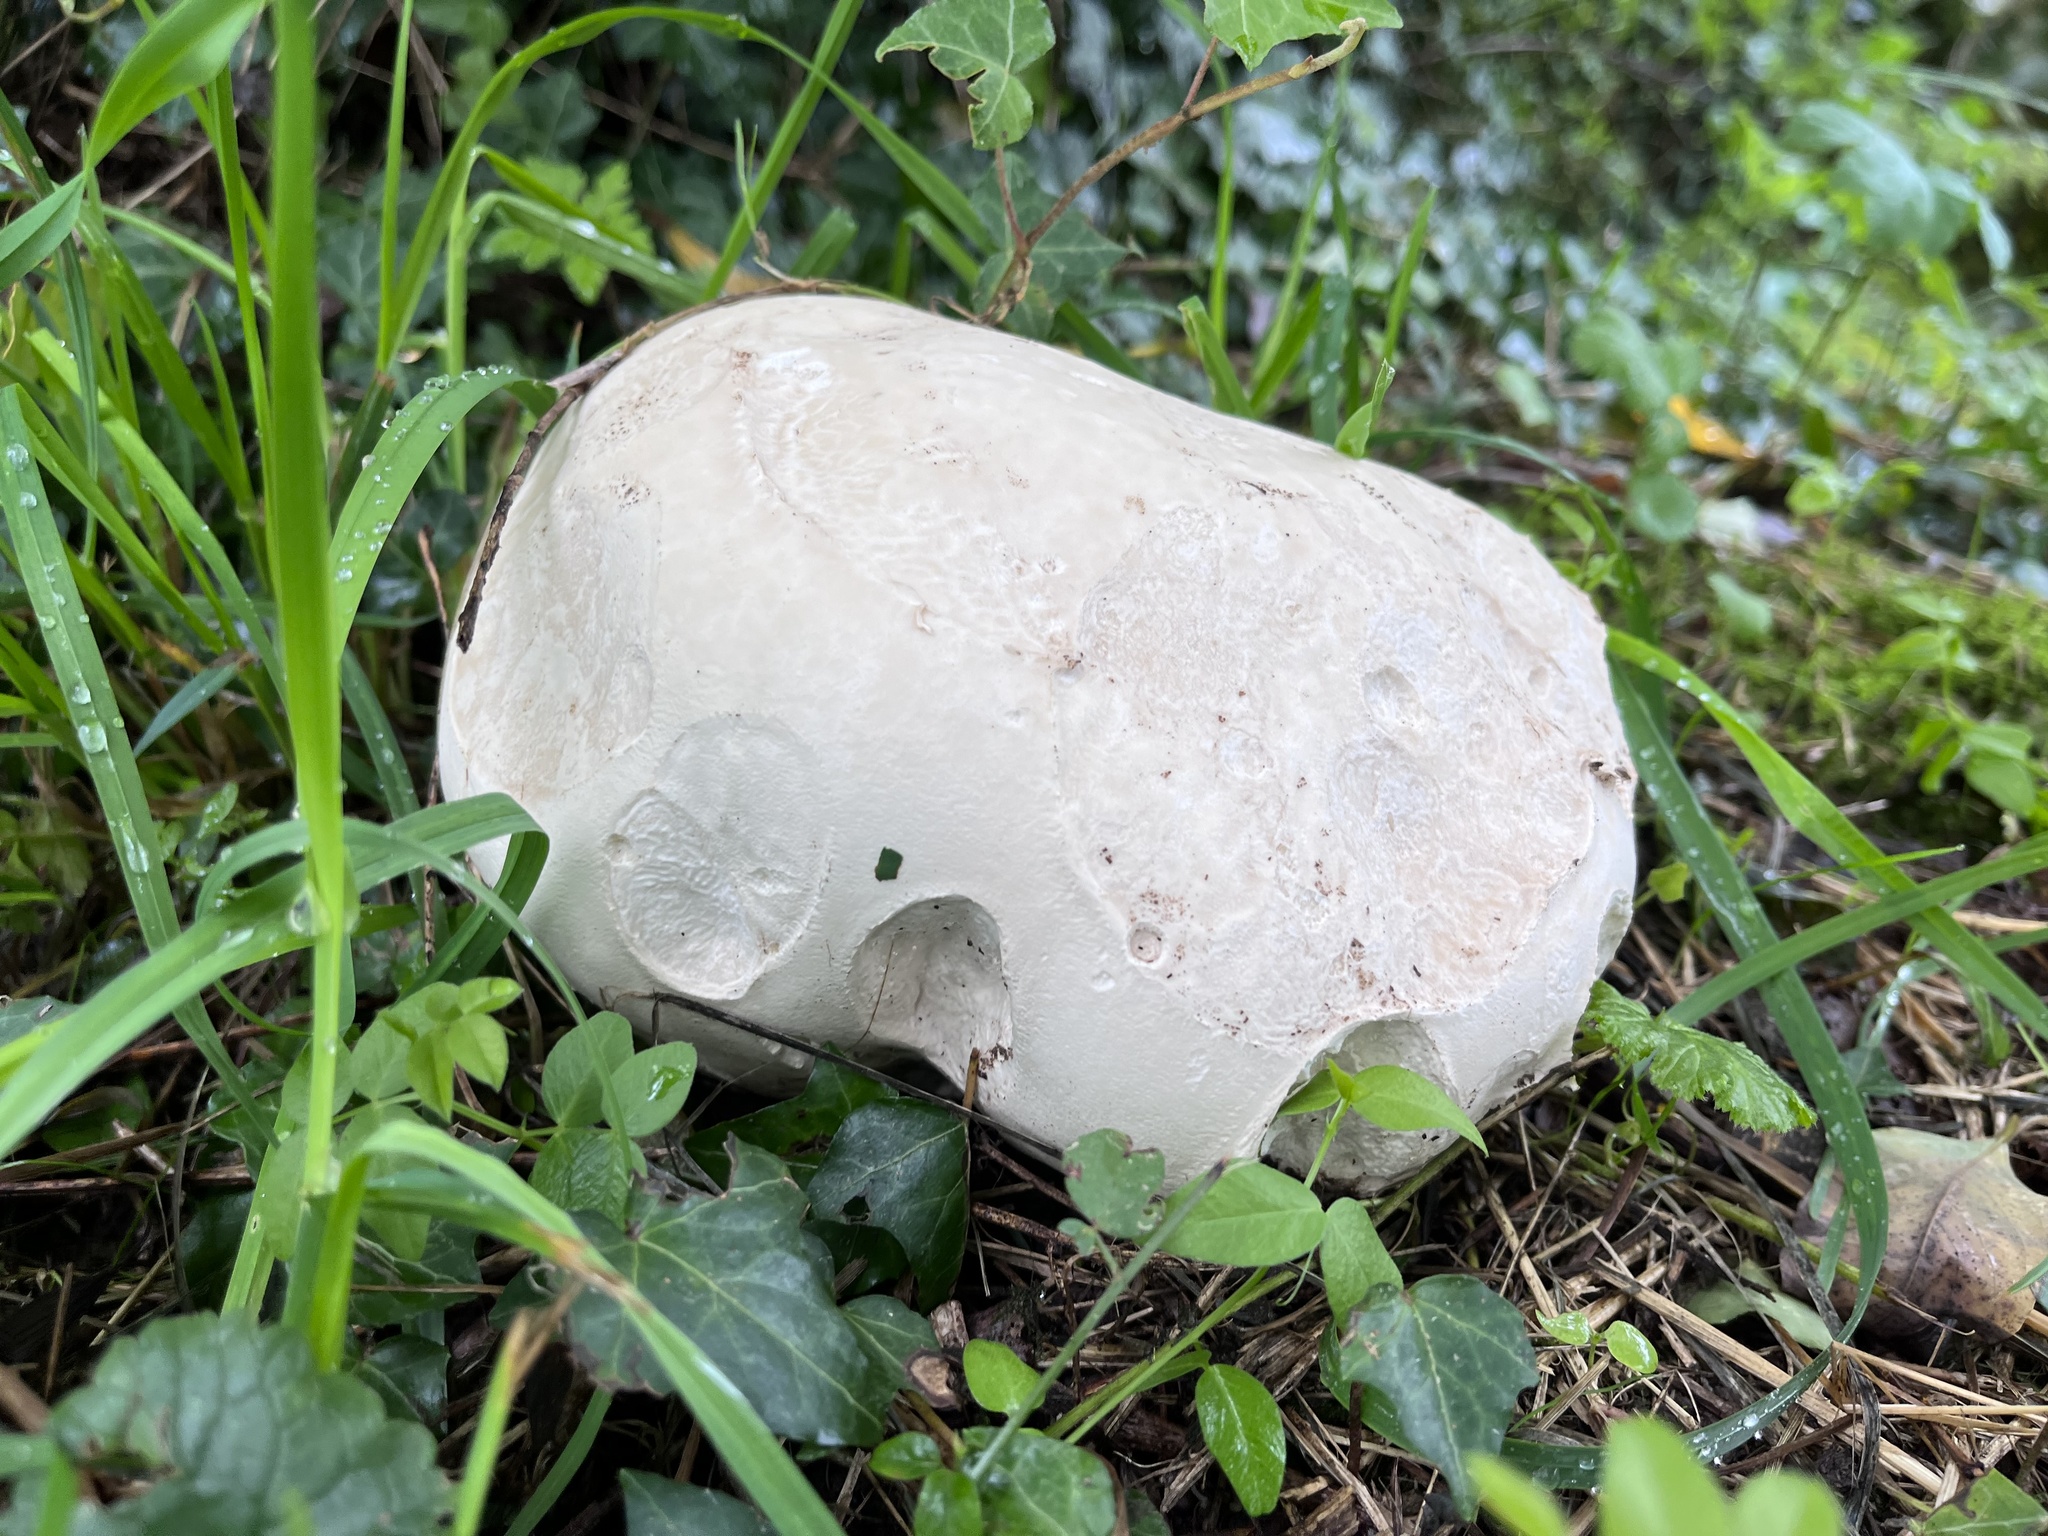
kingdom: Fungi
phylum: Basidiomycota
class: Agaricomycetes
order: Agaricales
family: Lycoperdaceae
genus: Calvatia
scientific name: Calvatia gigantea
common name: Giant puffball
